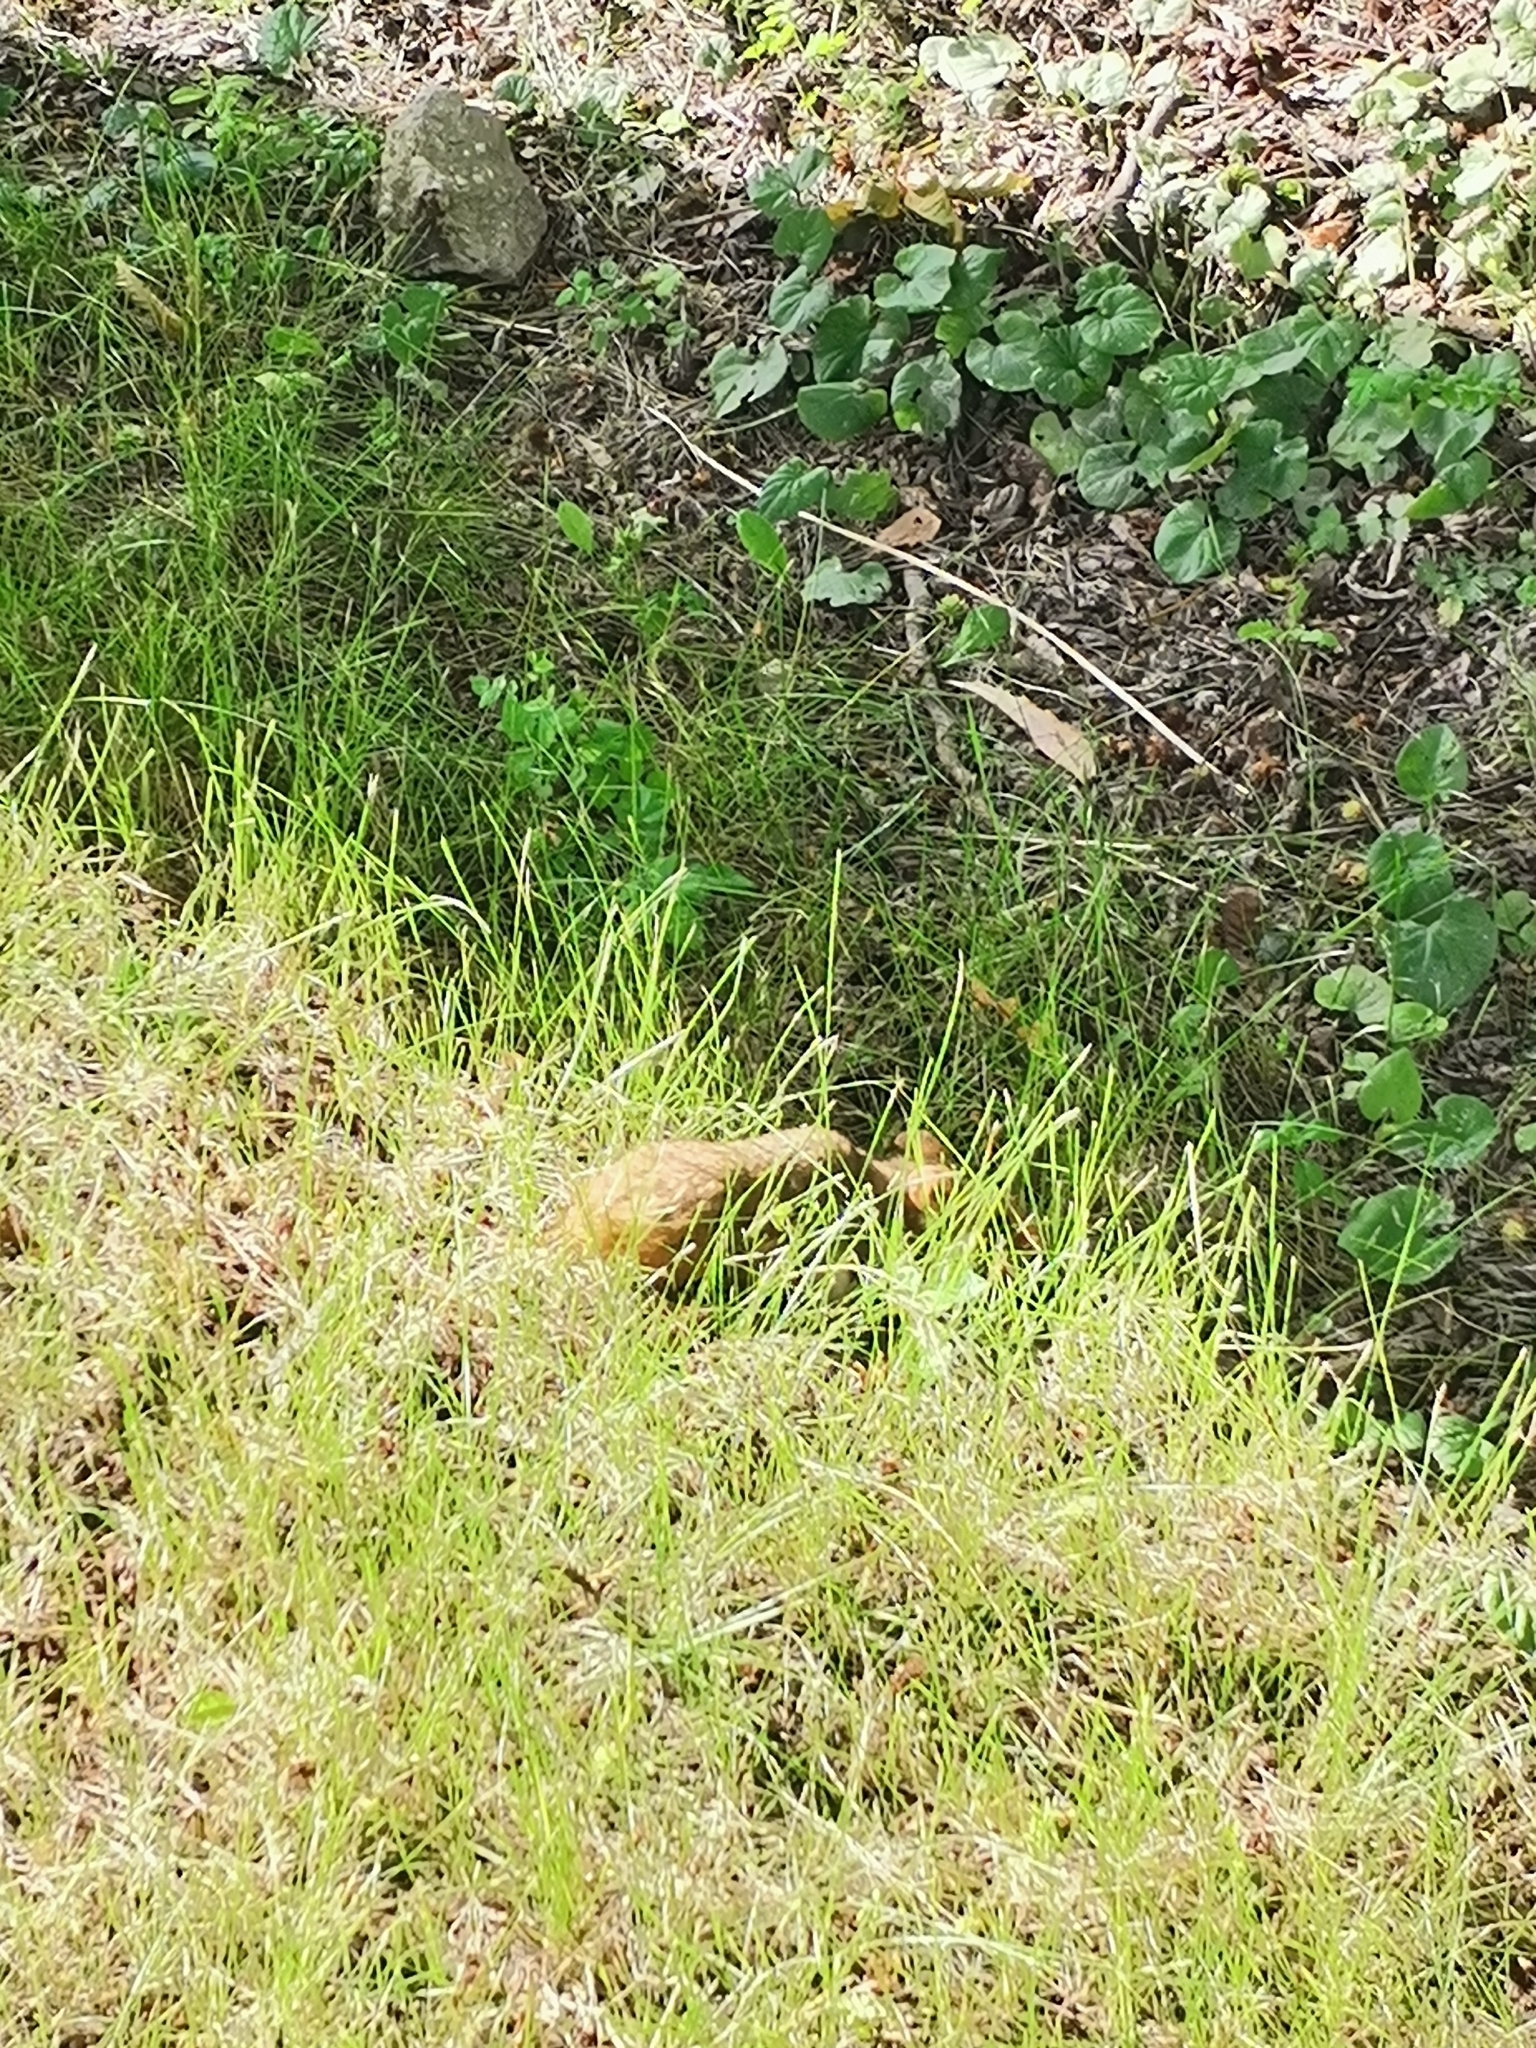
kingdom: Animalia
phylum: Chordata
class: Mammalia
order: Rodentia
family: Cricetidae
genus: Cricetus
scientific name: Cricetus cricetus
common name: Common hamster
